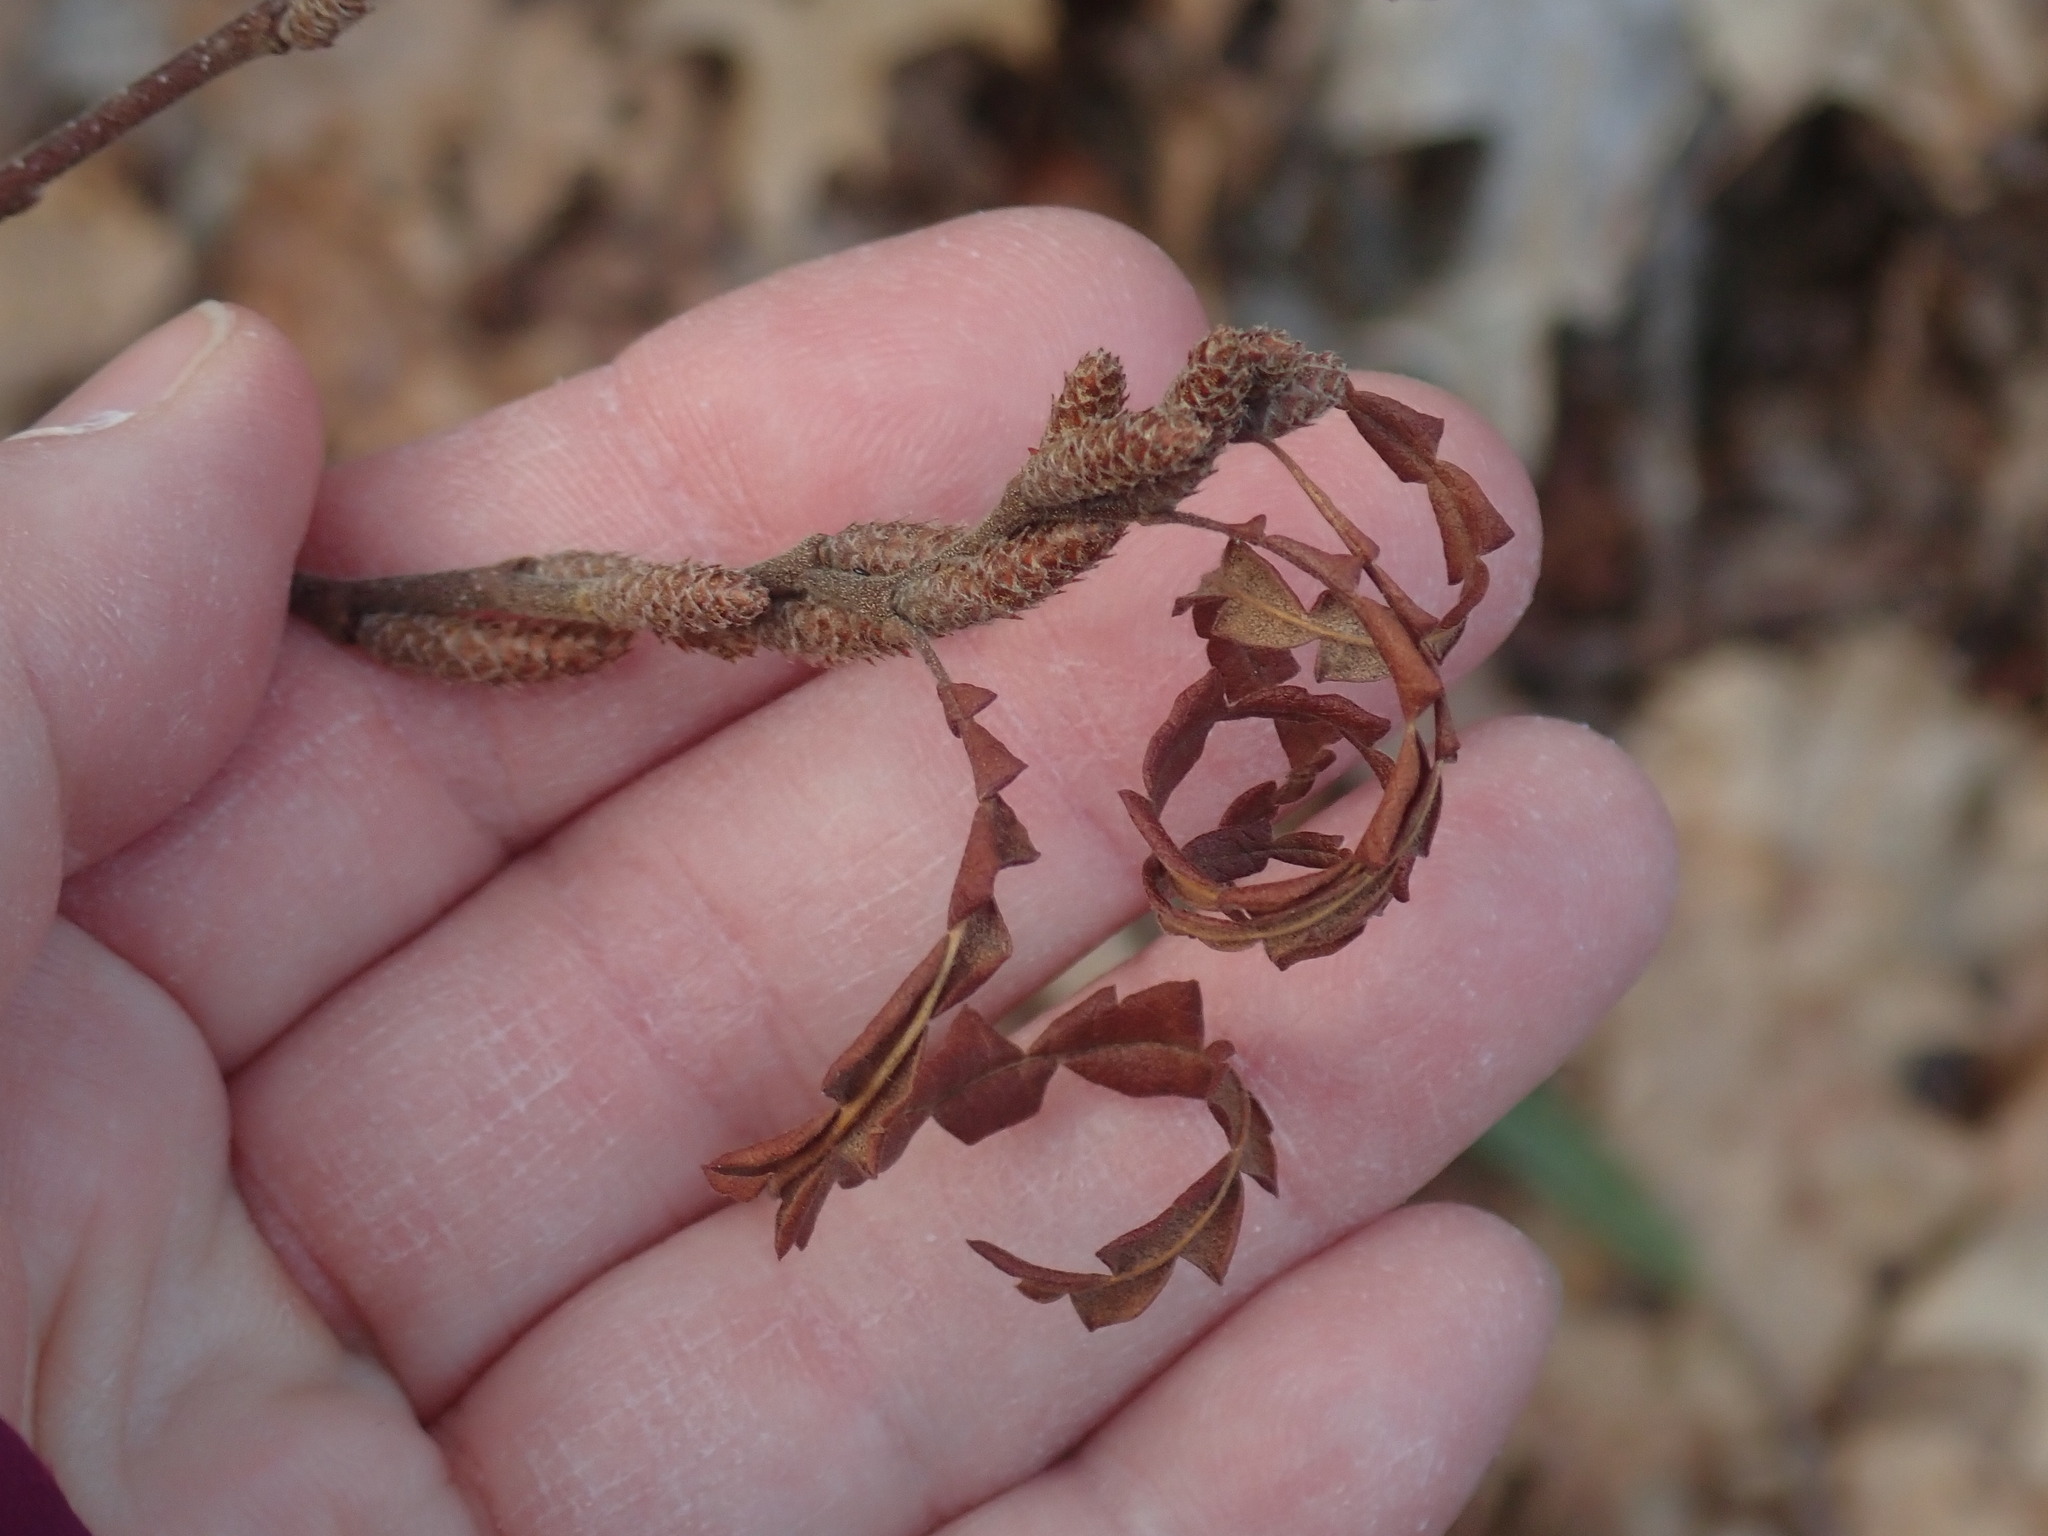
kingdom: Plantae
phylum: Tracheophyta
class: Magnoliopsida
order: Fagales
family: Myricaceae
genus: Comptonia
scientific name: Comptonia peregrina
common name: Sweet-fern
